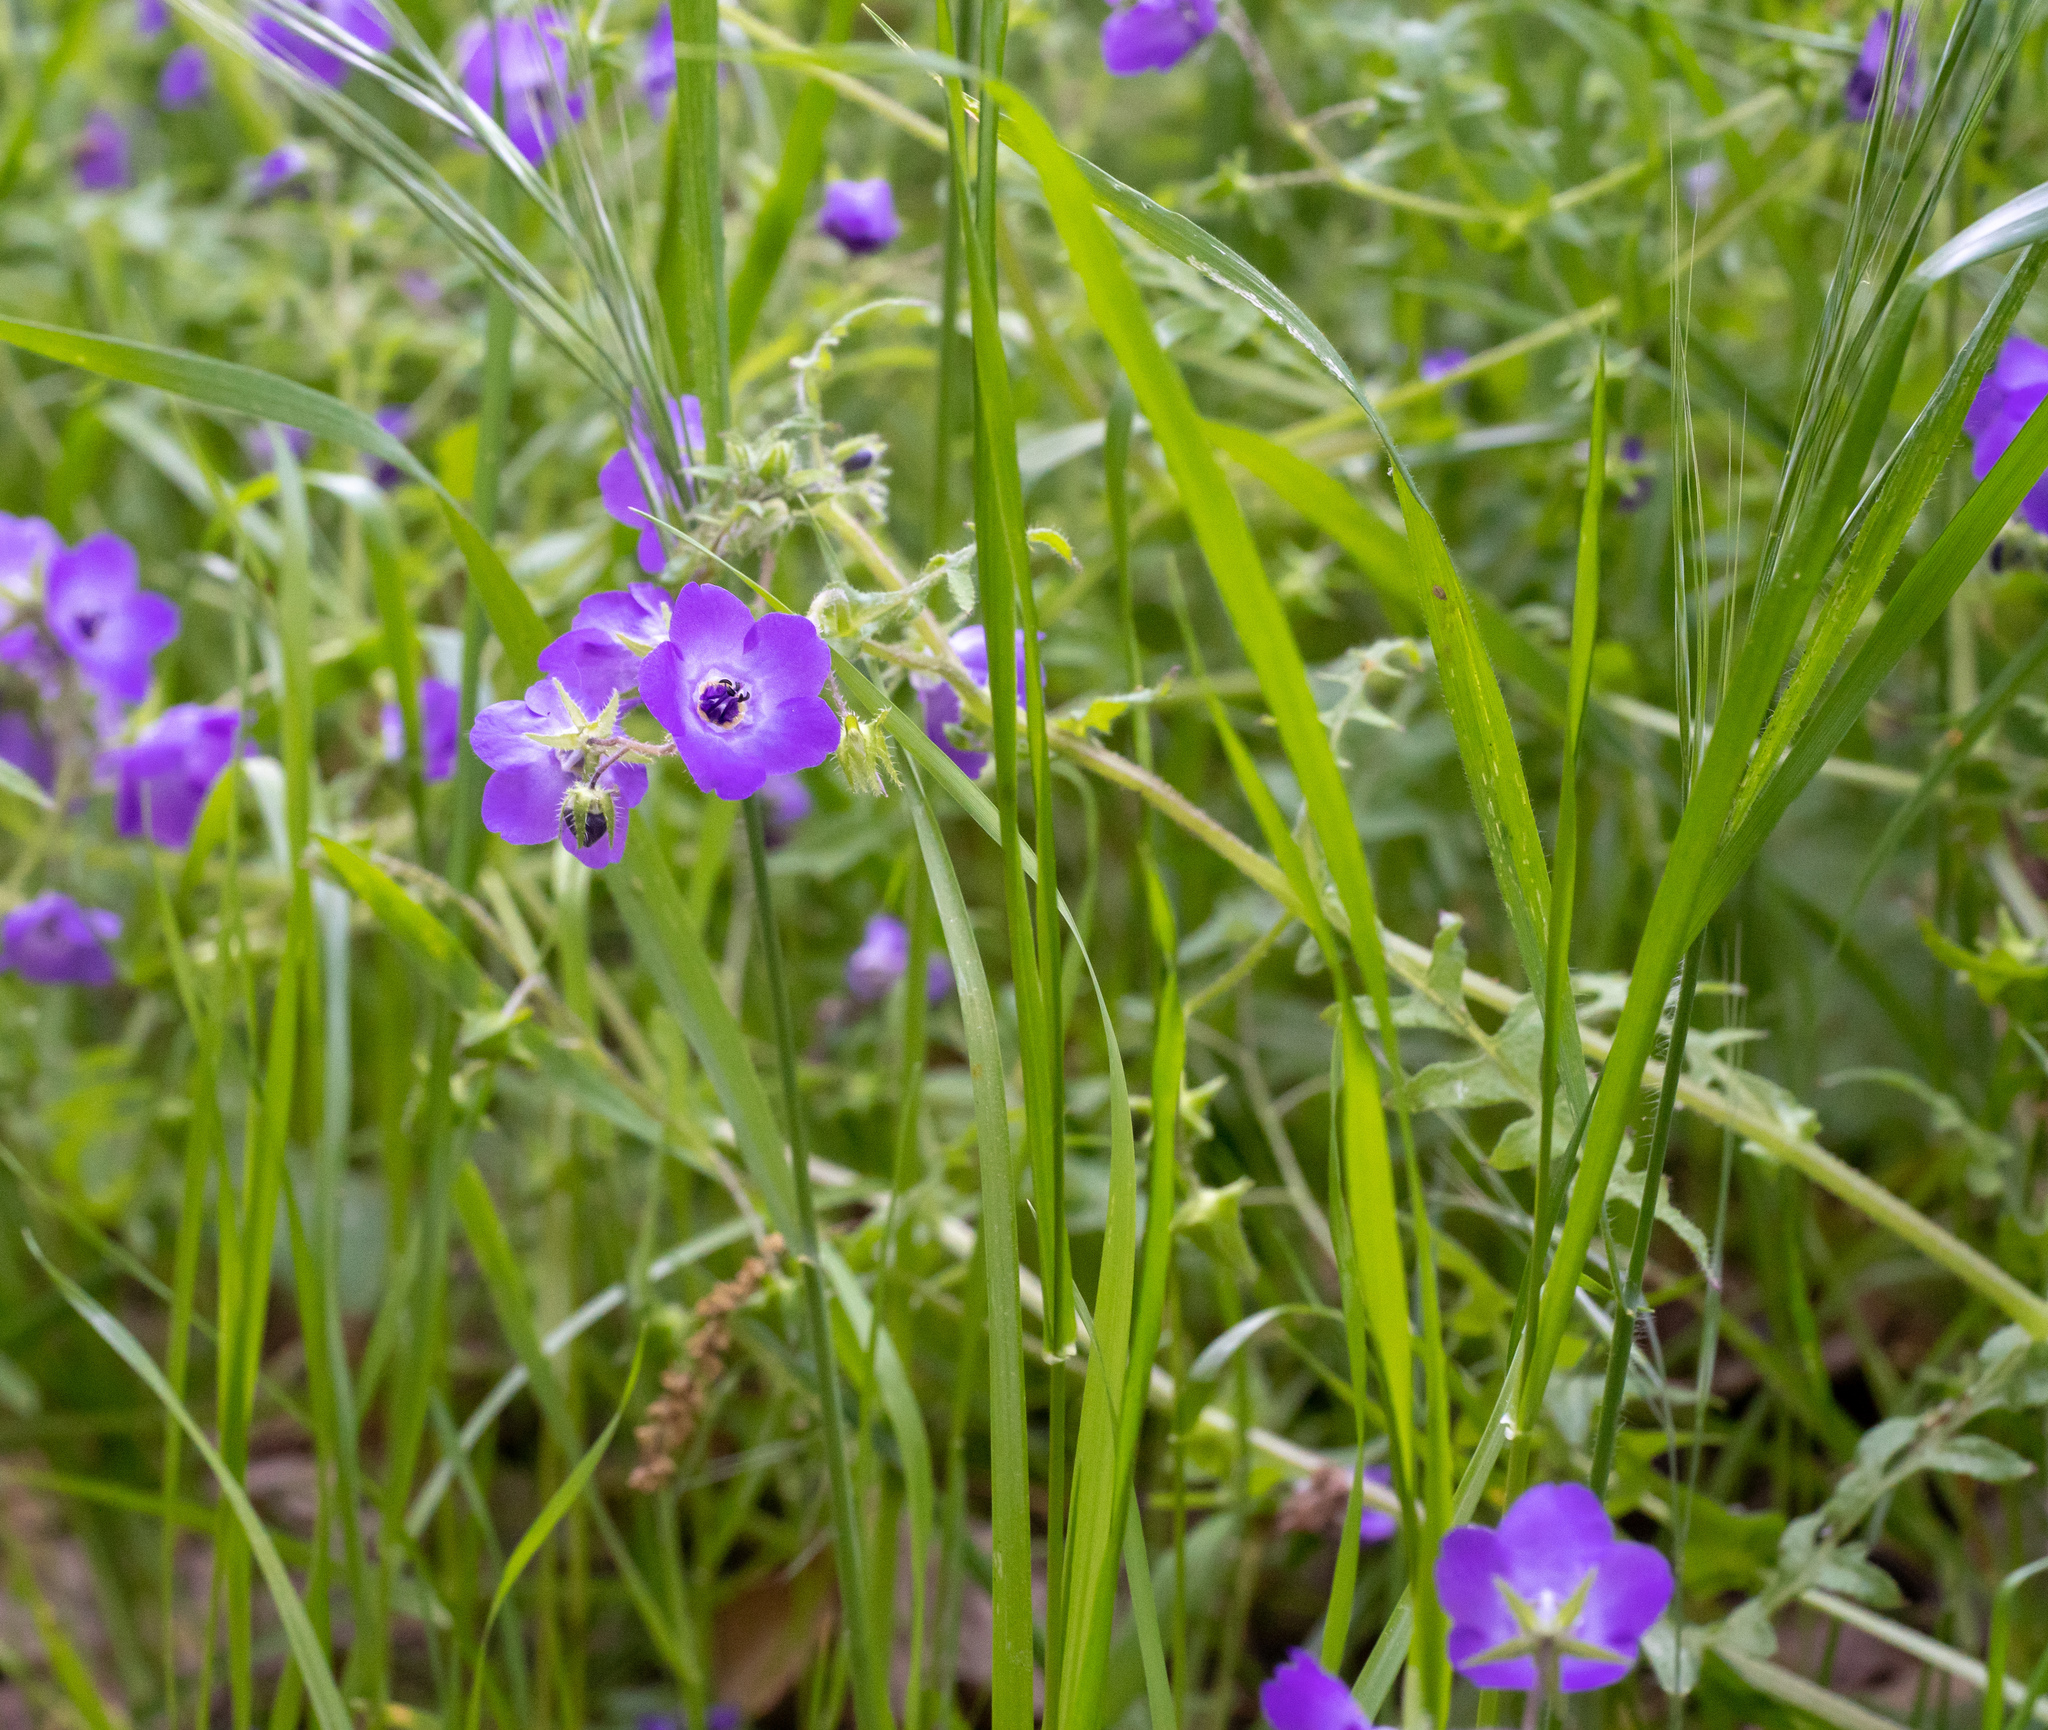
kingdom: Plantae
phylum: Tracheophyta
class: Magnoliopsida
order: Boraginales
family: Hydrophyllaceae
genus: Pholistoma
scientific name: Pholistoma auritum
